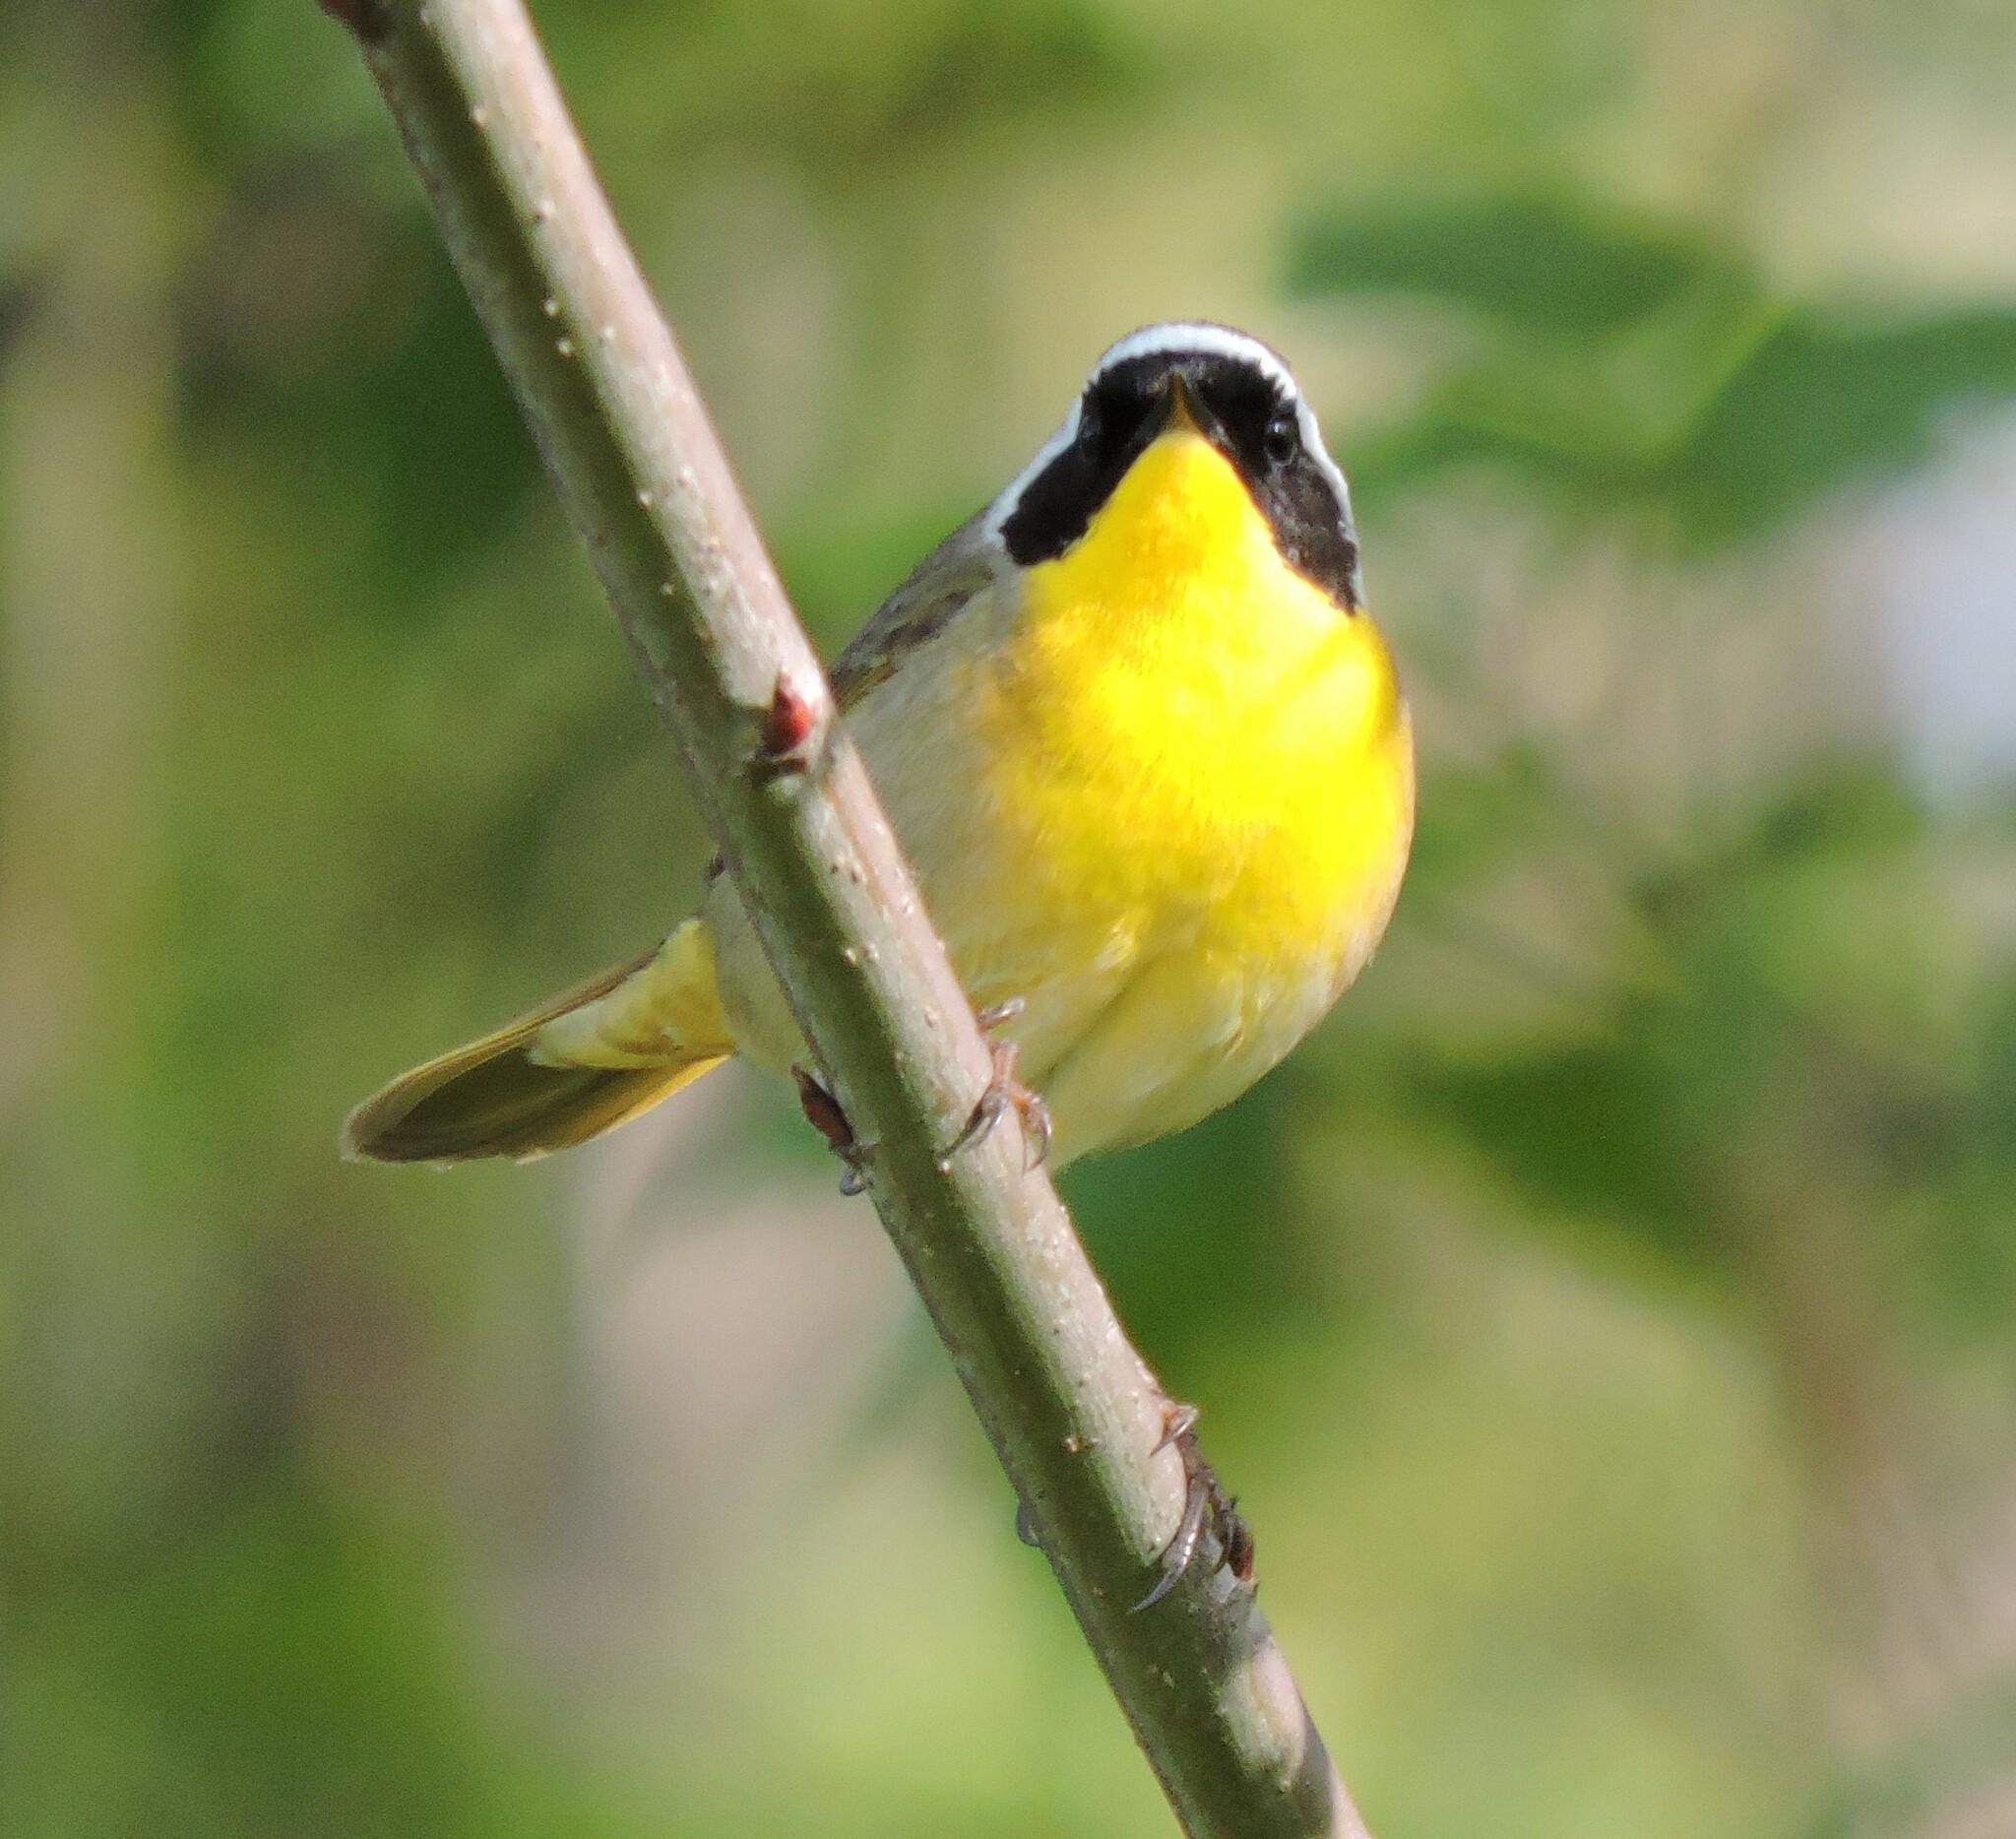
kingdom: Animalia
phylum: Chordata
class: Aves
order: Passeriformes
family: Parulidae
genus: Geothlypis
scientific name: Geothlypis trichas
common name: Common yellowthroat
